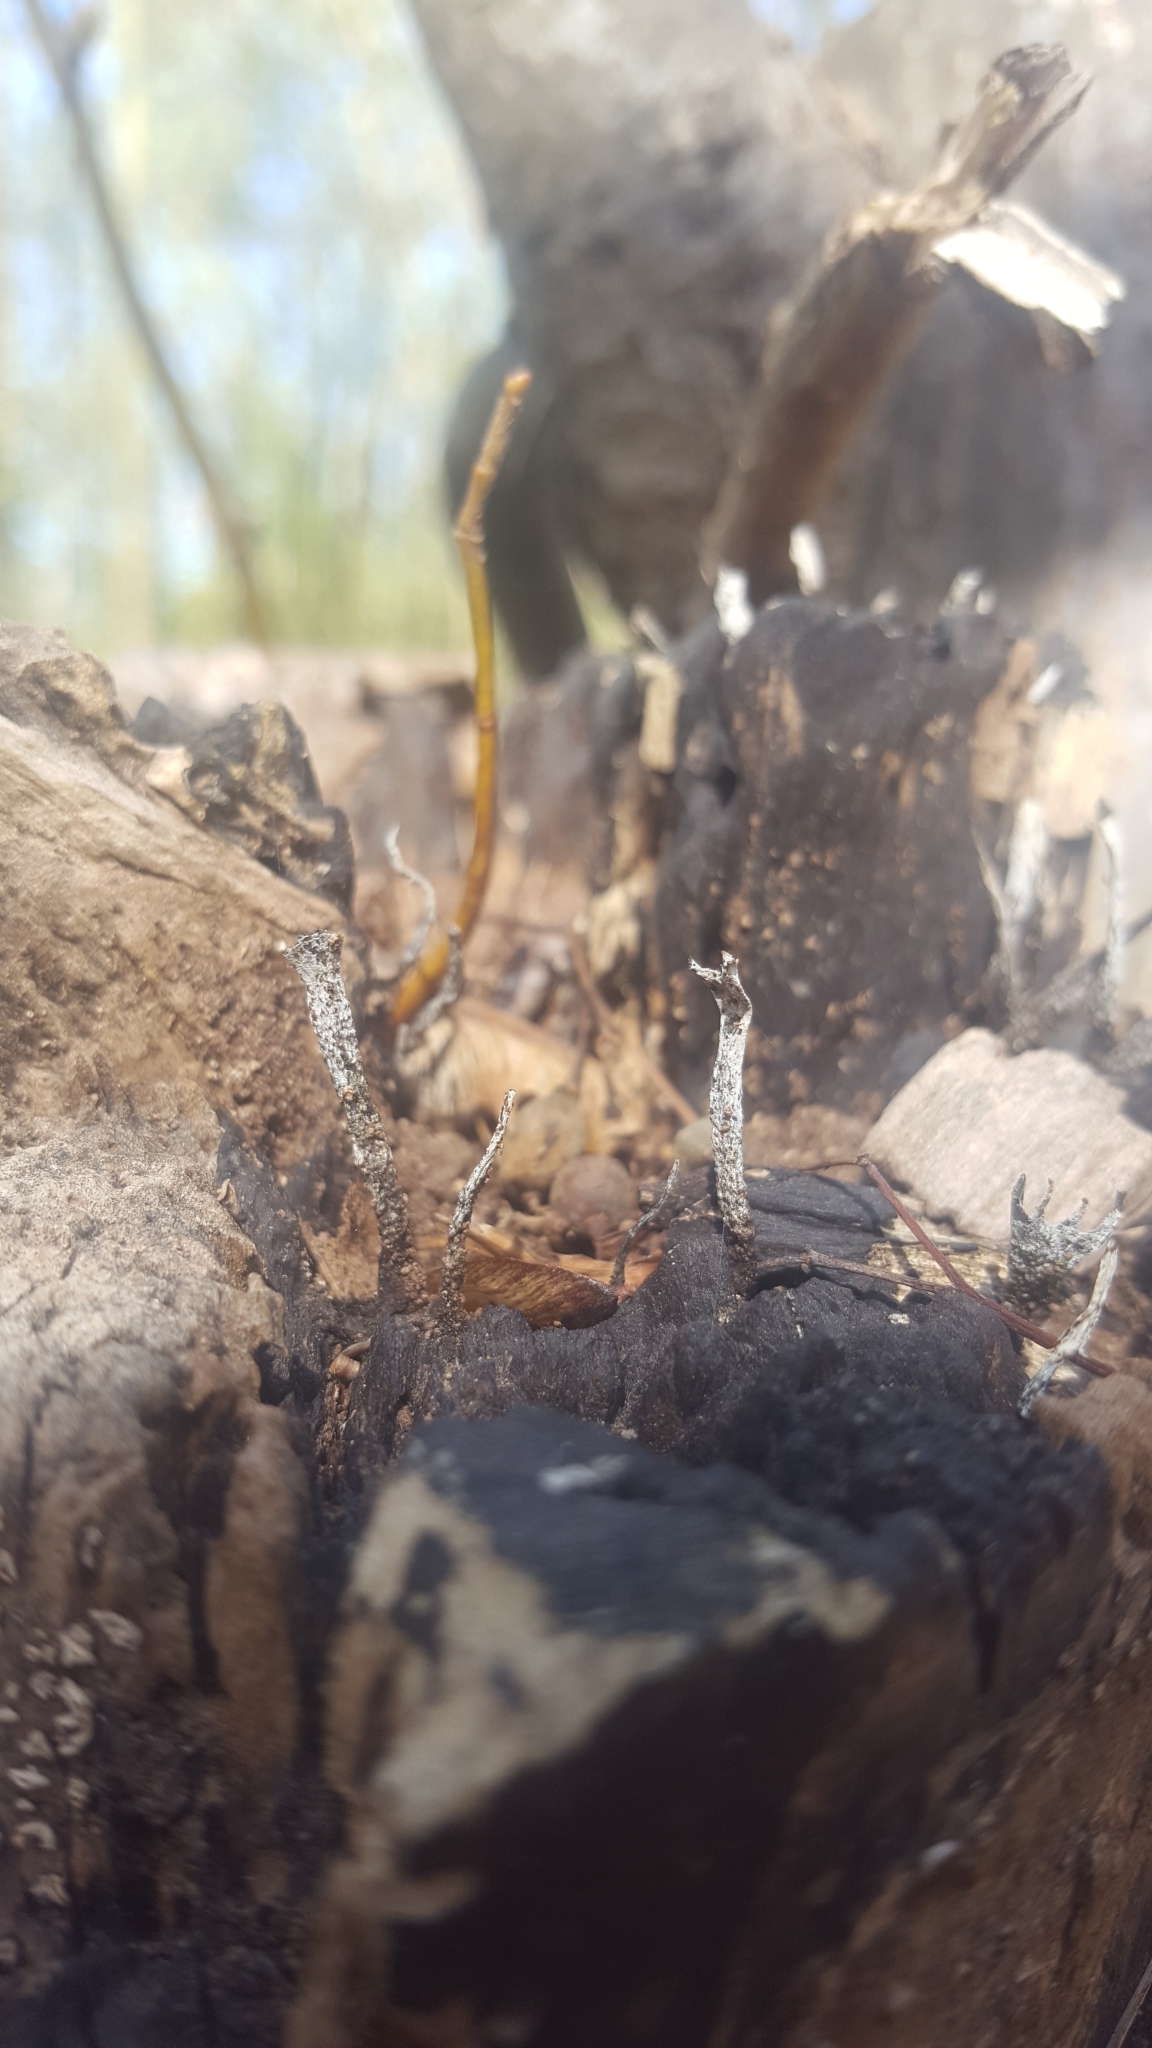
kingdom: Fungi
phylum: Ascomycota
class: Sordariomycetes
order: Xylariales
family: Xylariaceae
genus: Xylaria
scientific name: Xylaria hypoxylon
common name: Candle-snuff fungus
